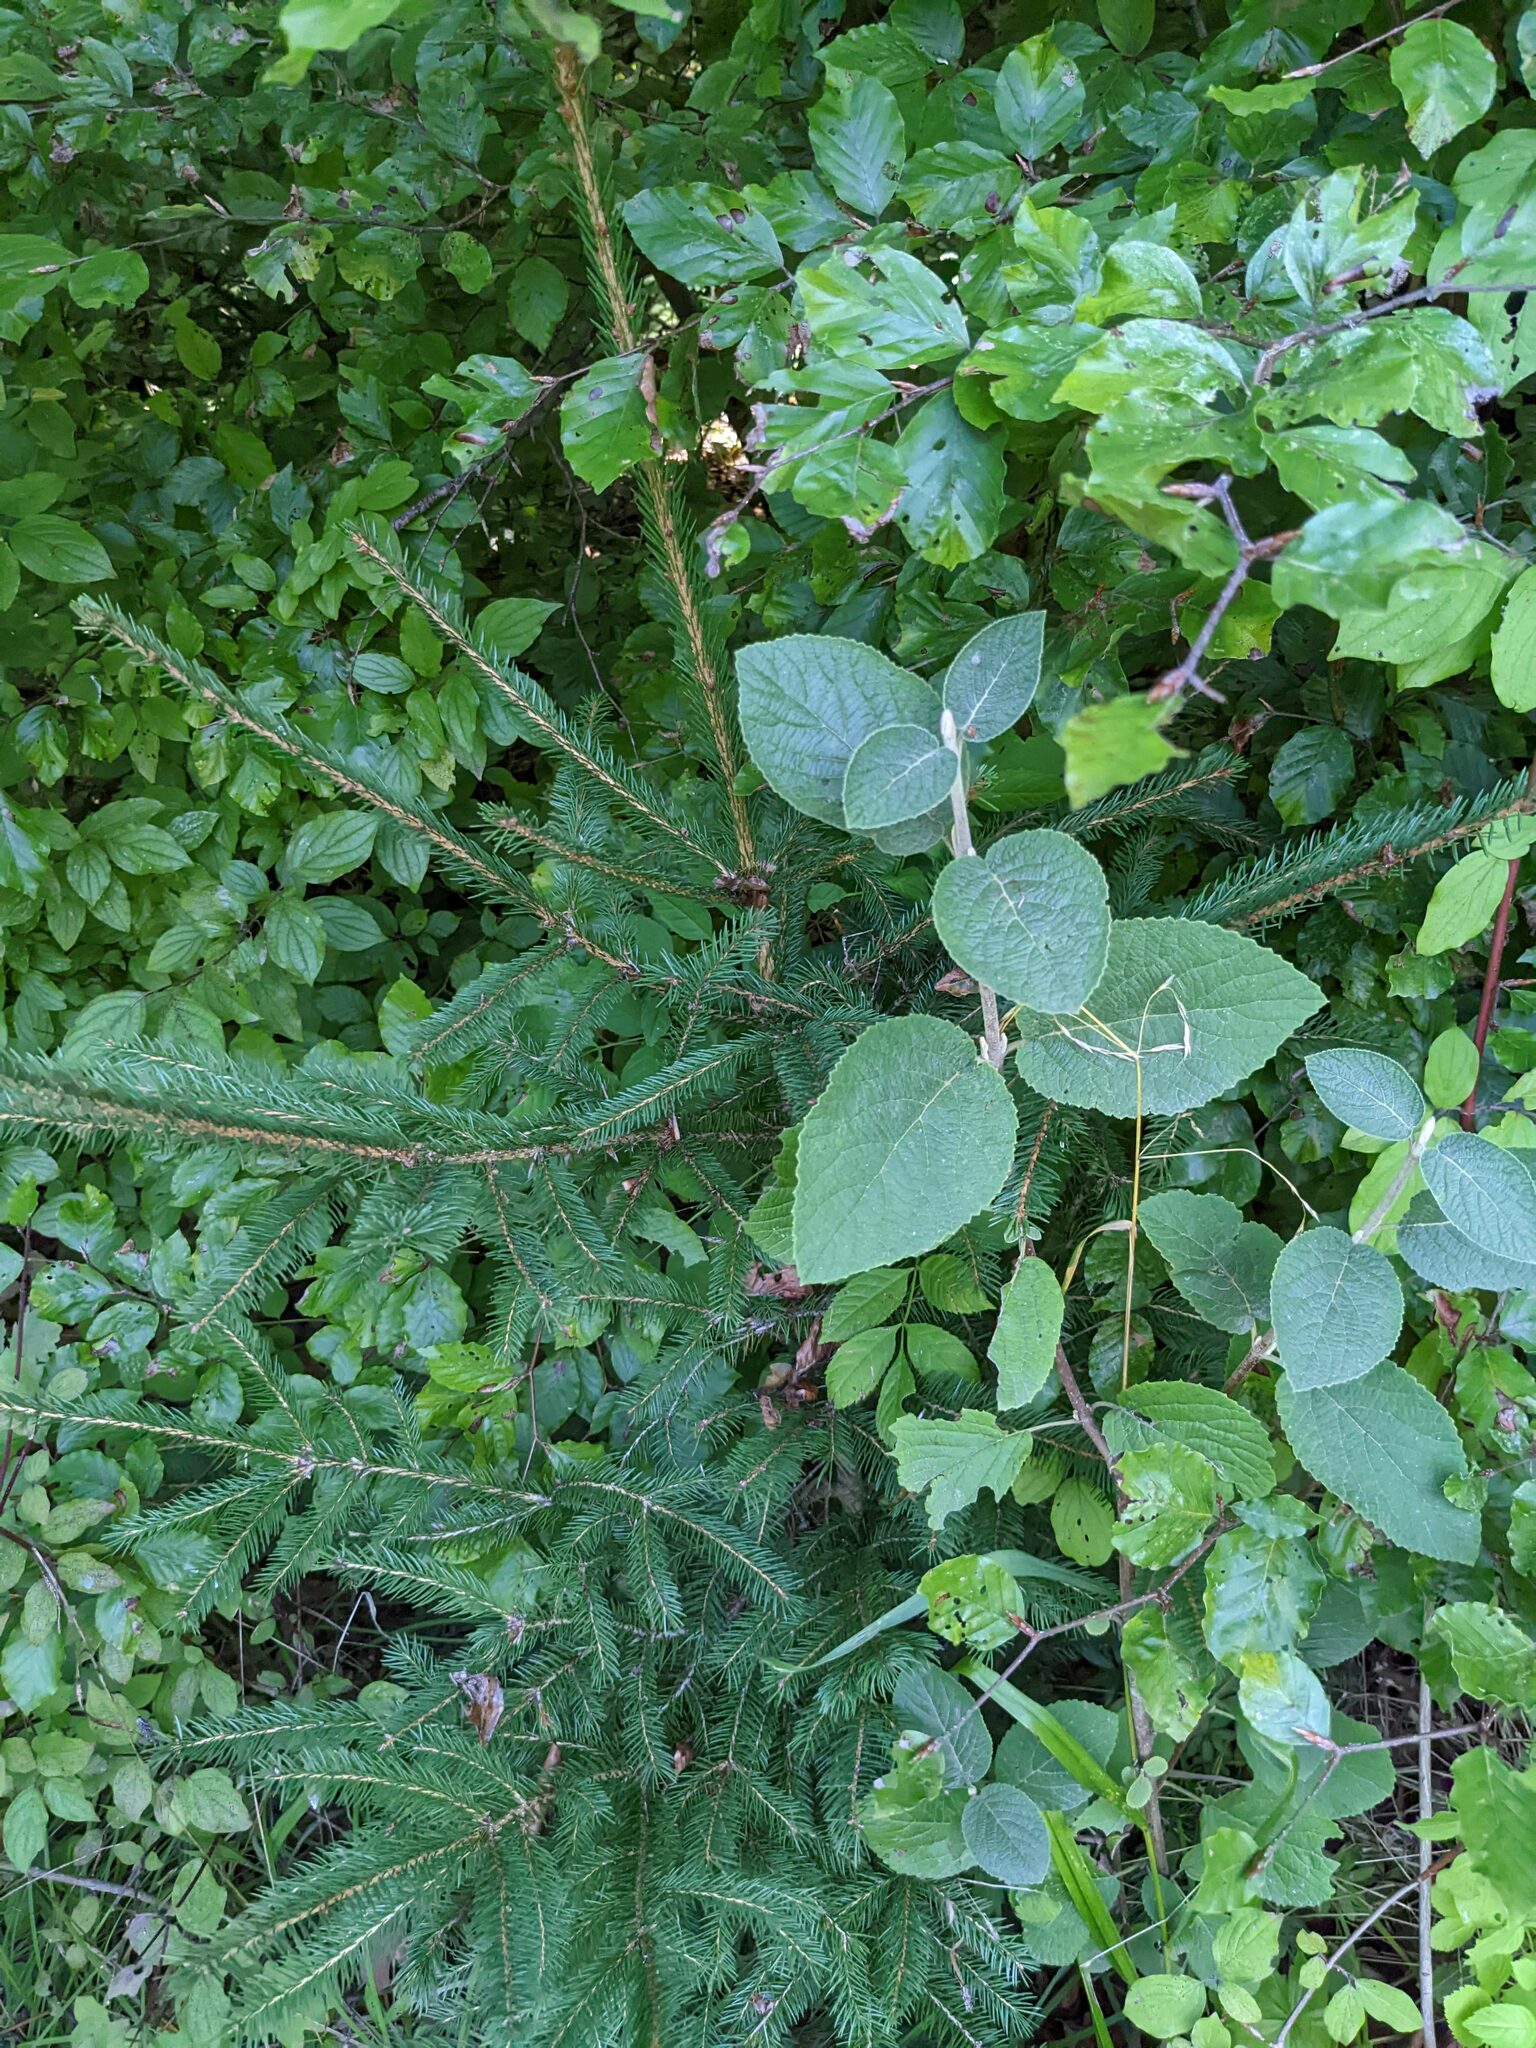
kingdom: Plantae
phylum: Tracheophyta
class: Magnoliopsida
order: Dipsacales
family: Viburnaceae
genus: Viburnum
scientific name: Viburnum lantana
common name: Wayfaring tree
